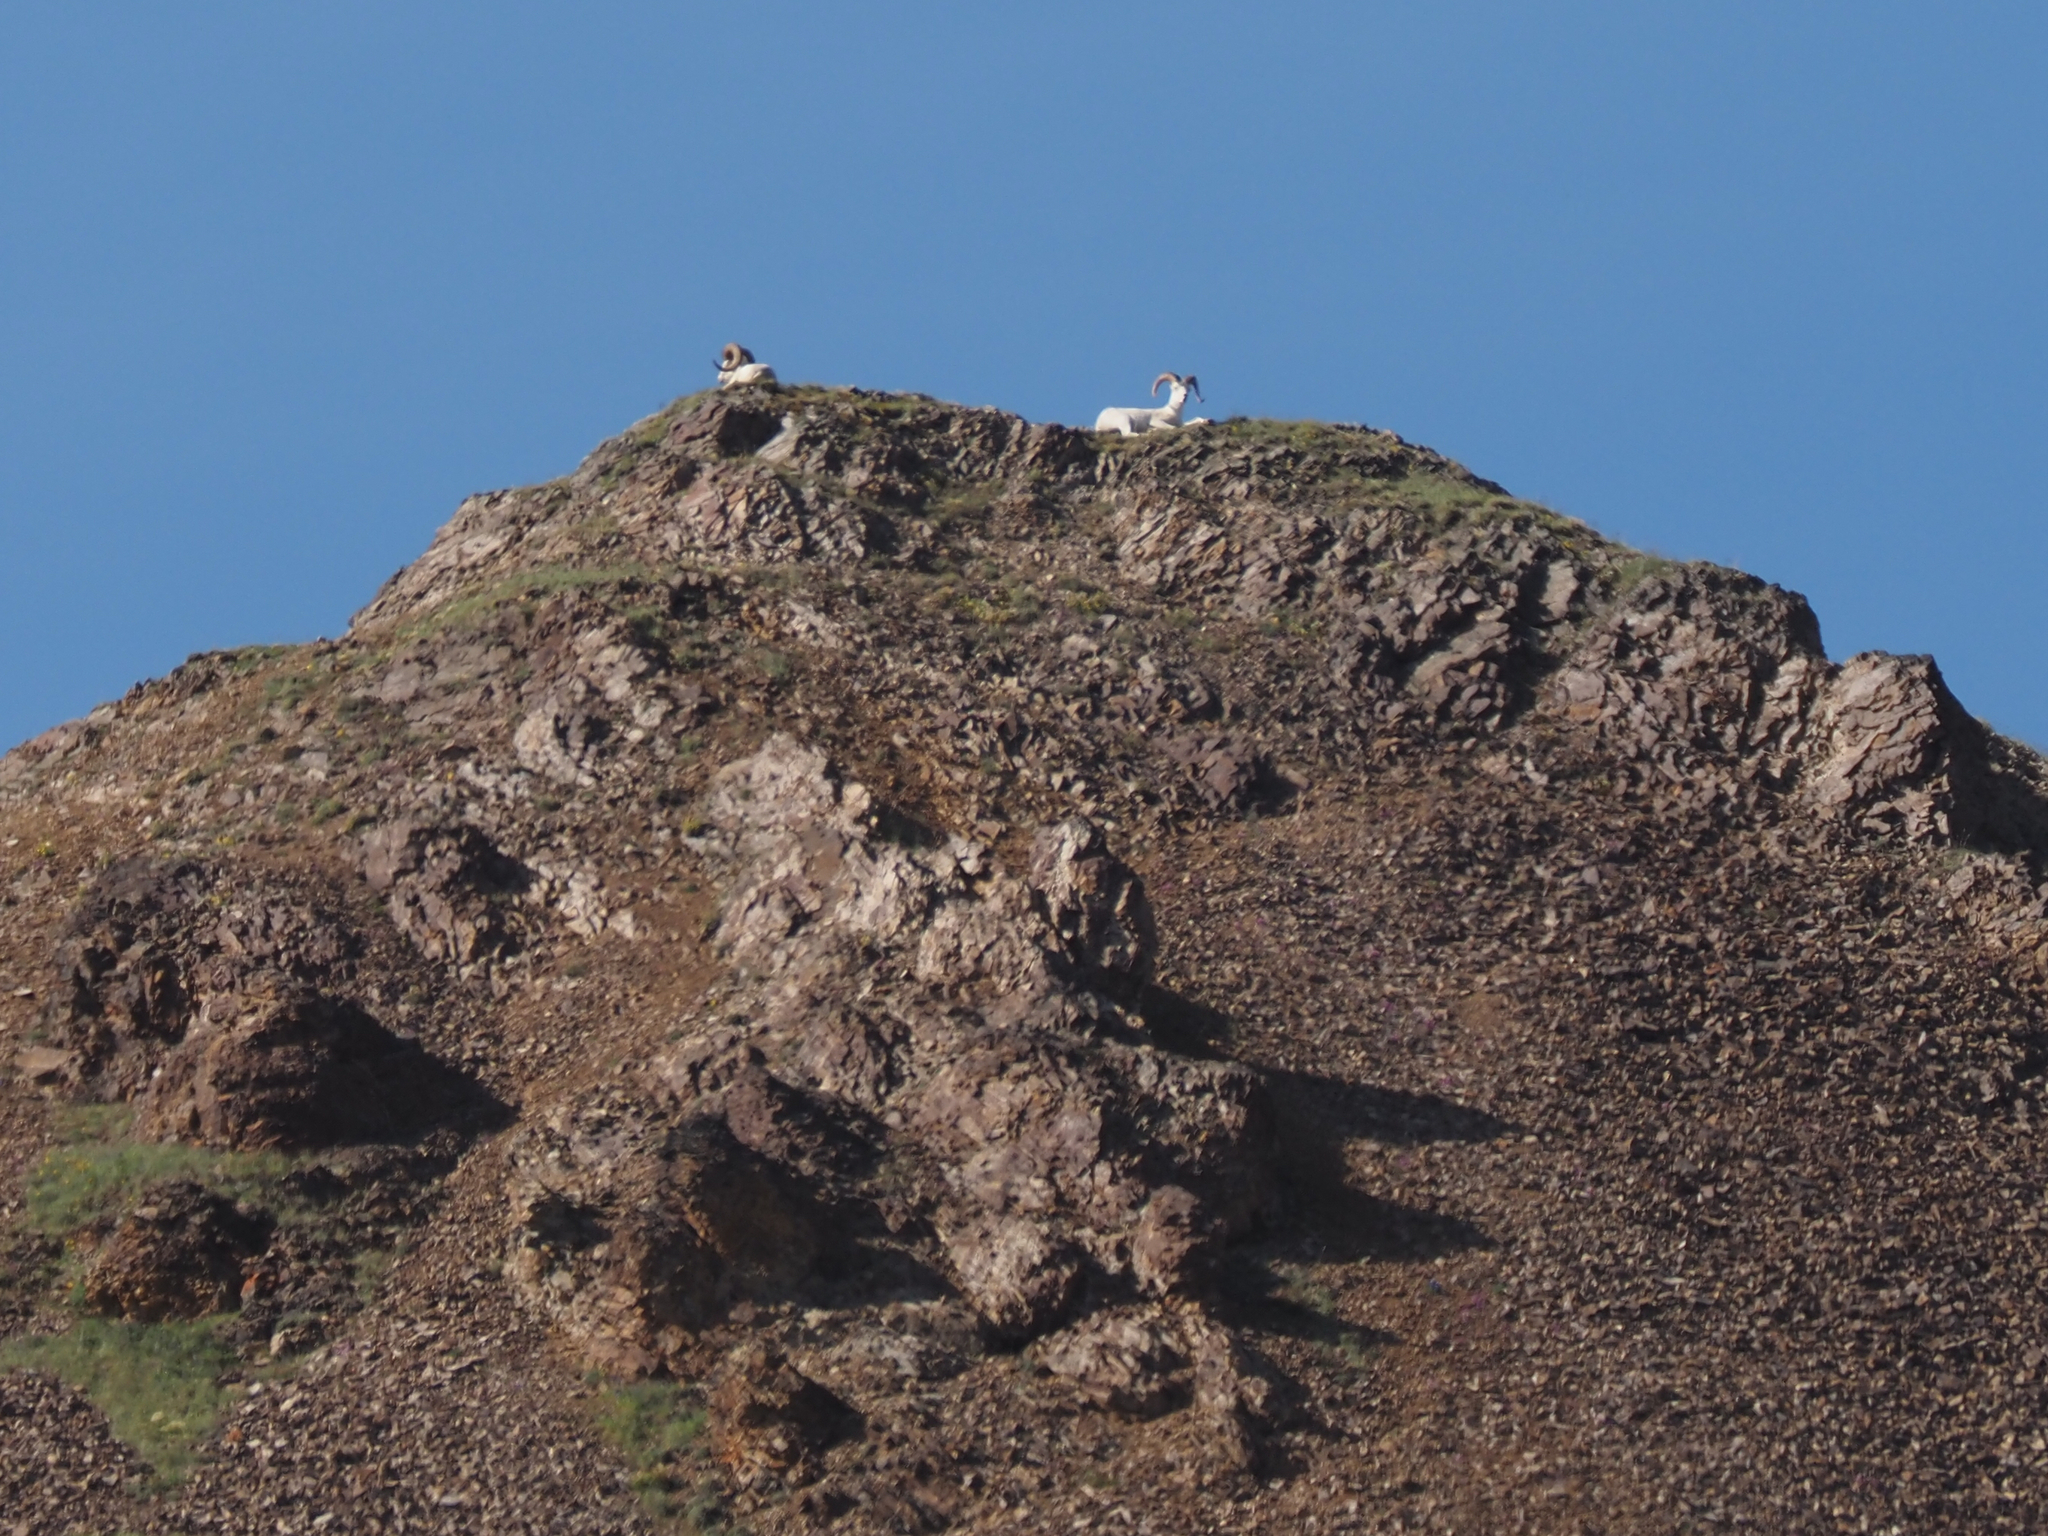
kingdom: Animalia
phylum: Chordata
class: Mammalia
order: Artiodactyla
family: Bovidae
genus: Ovis
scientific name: Ovis dalli
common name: Dall's sheep
